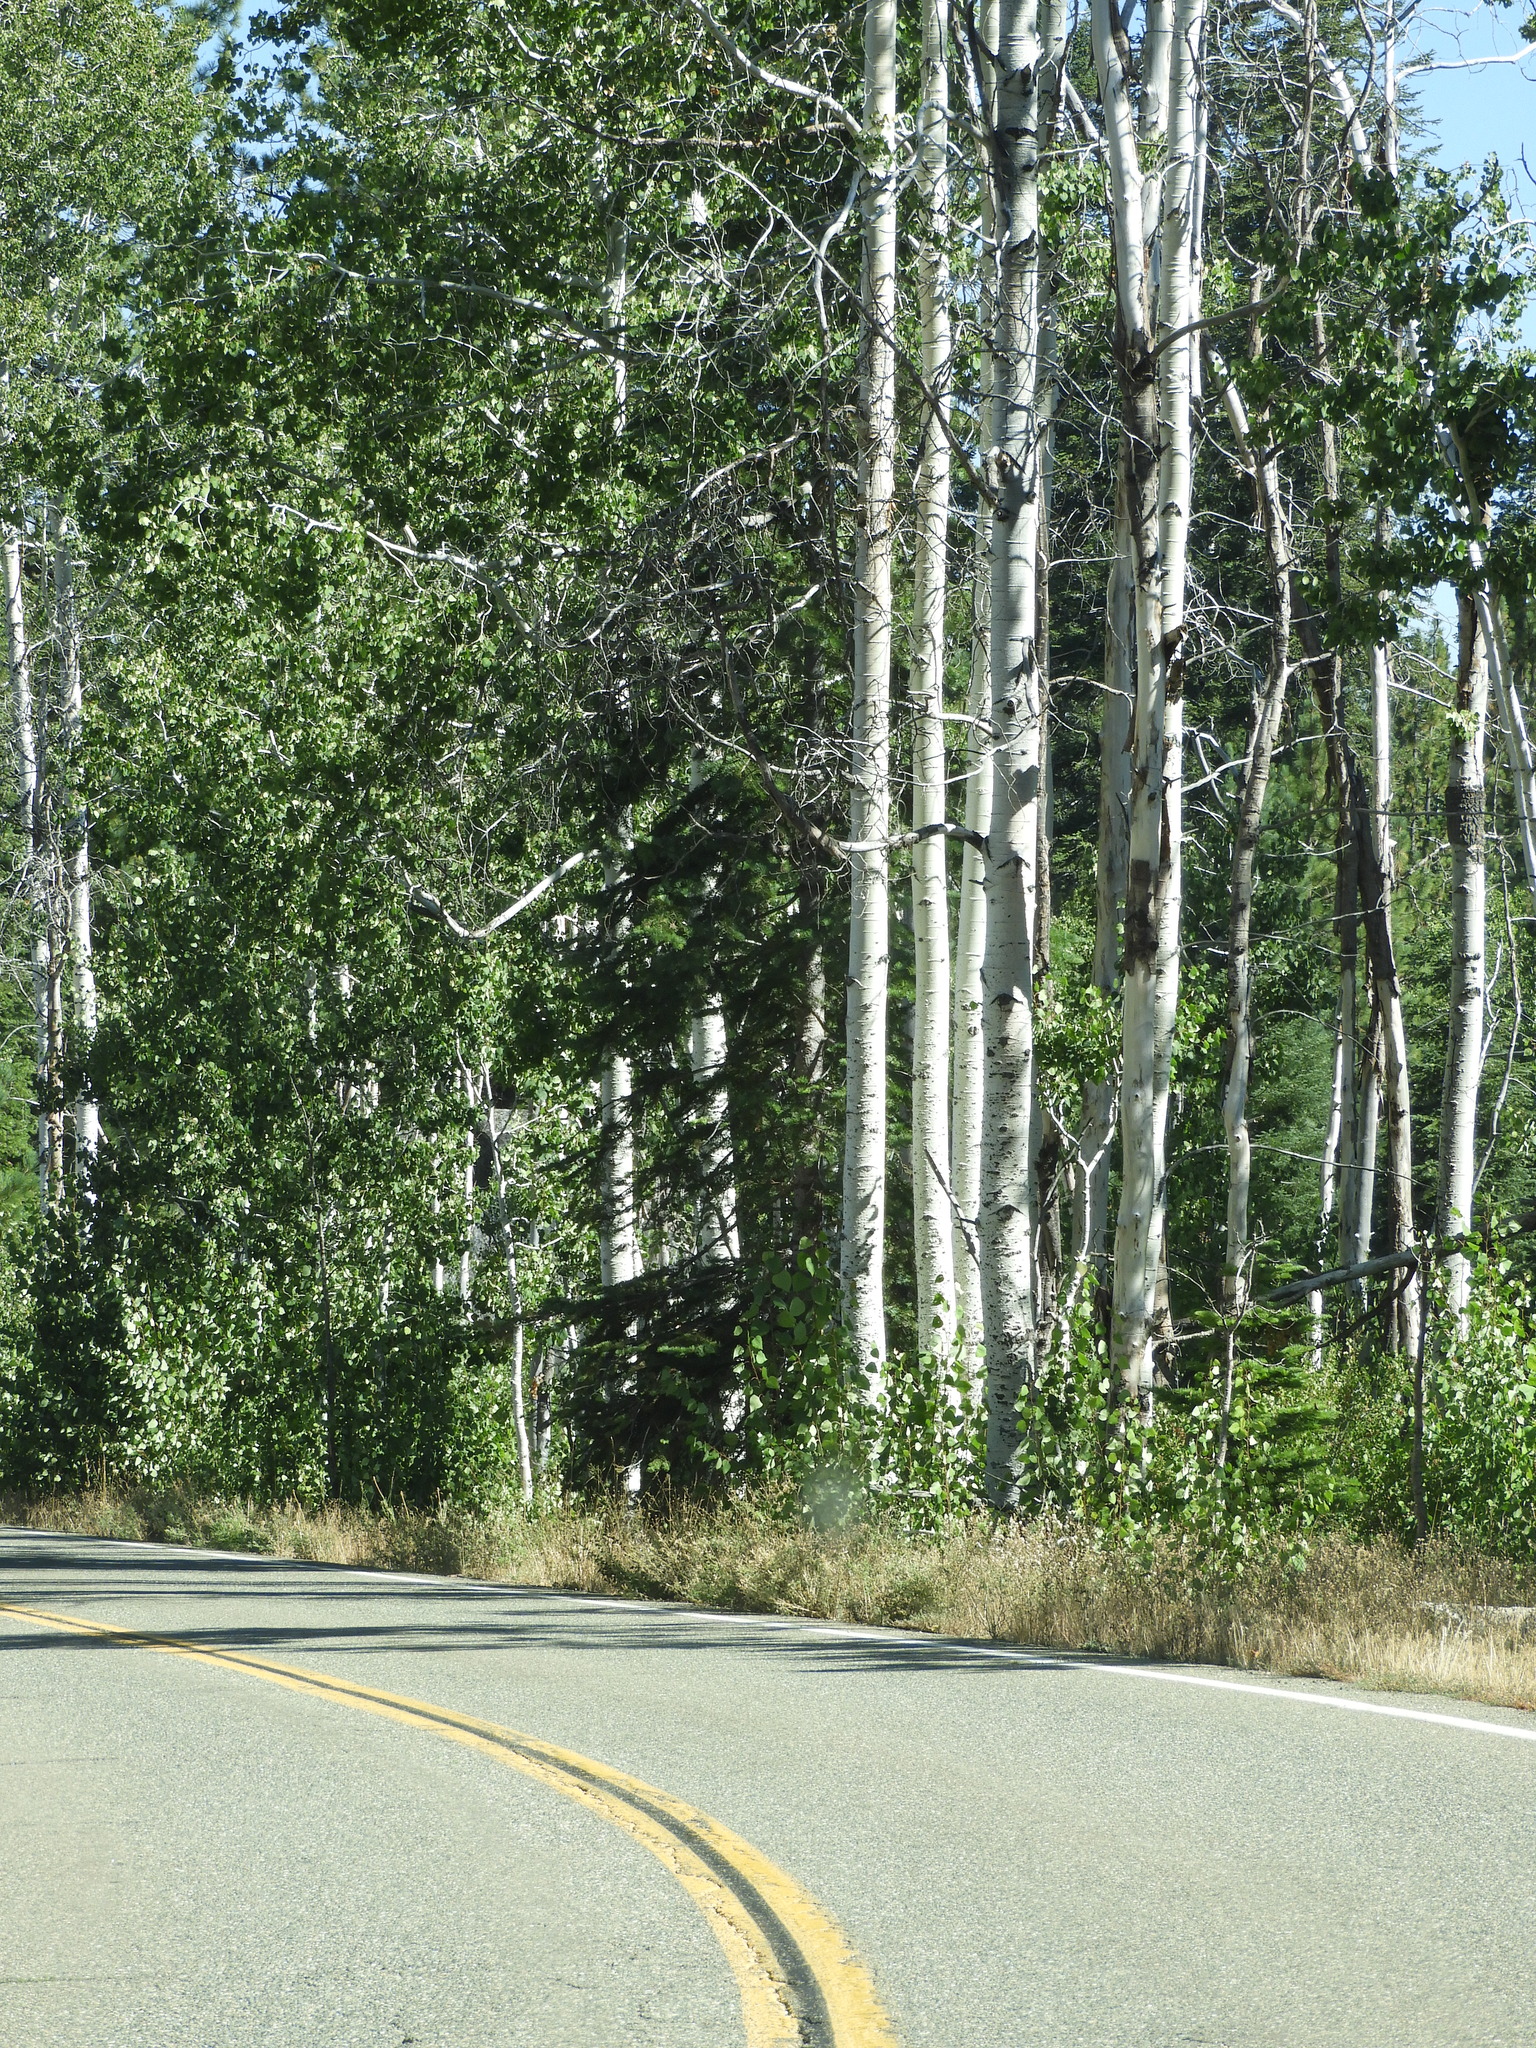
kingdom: Plantae
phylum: Tracheophyta
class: Magnoliopsida
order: Malpighiales
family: Salicaceae
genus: Populus
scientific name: Populus tremuloides
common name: Quaking aspen
